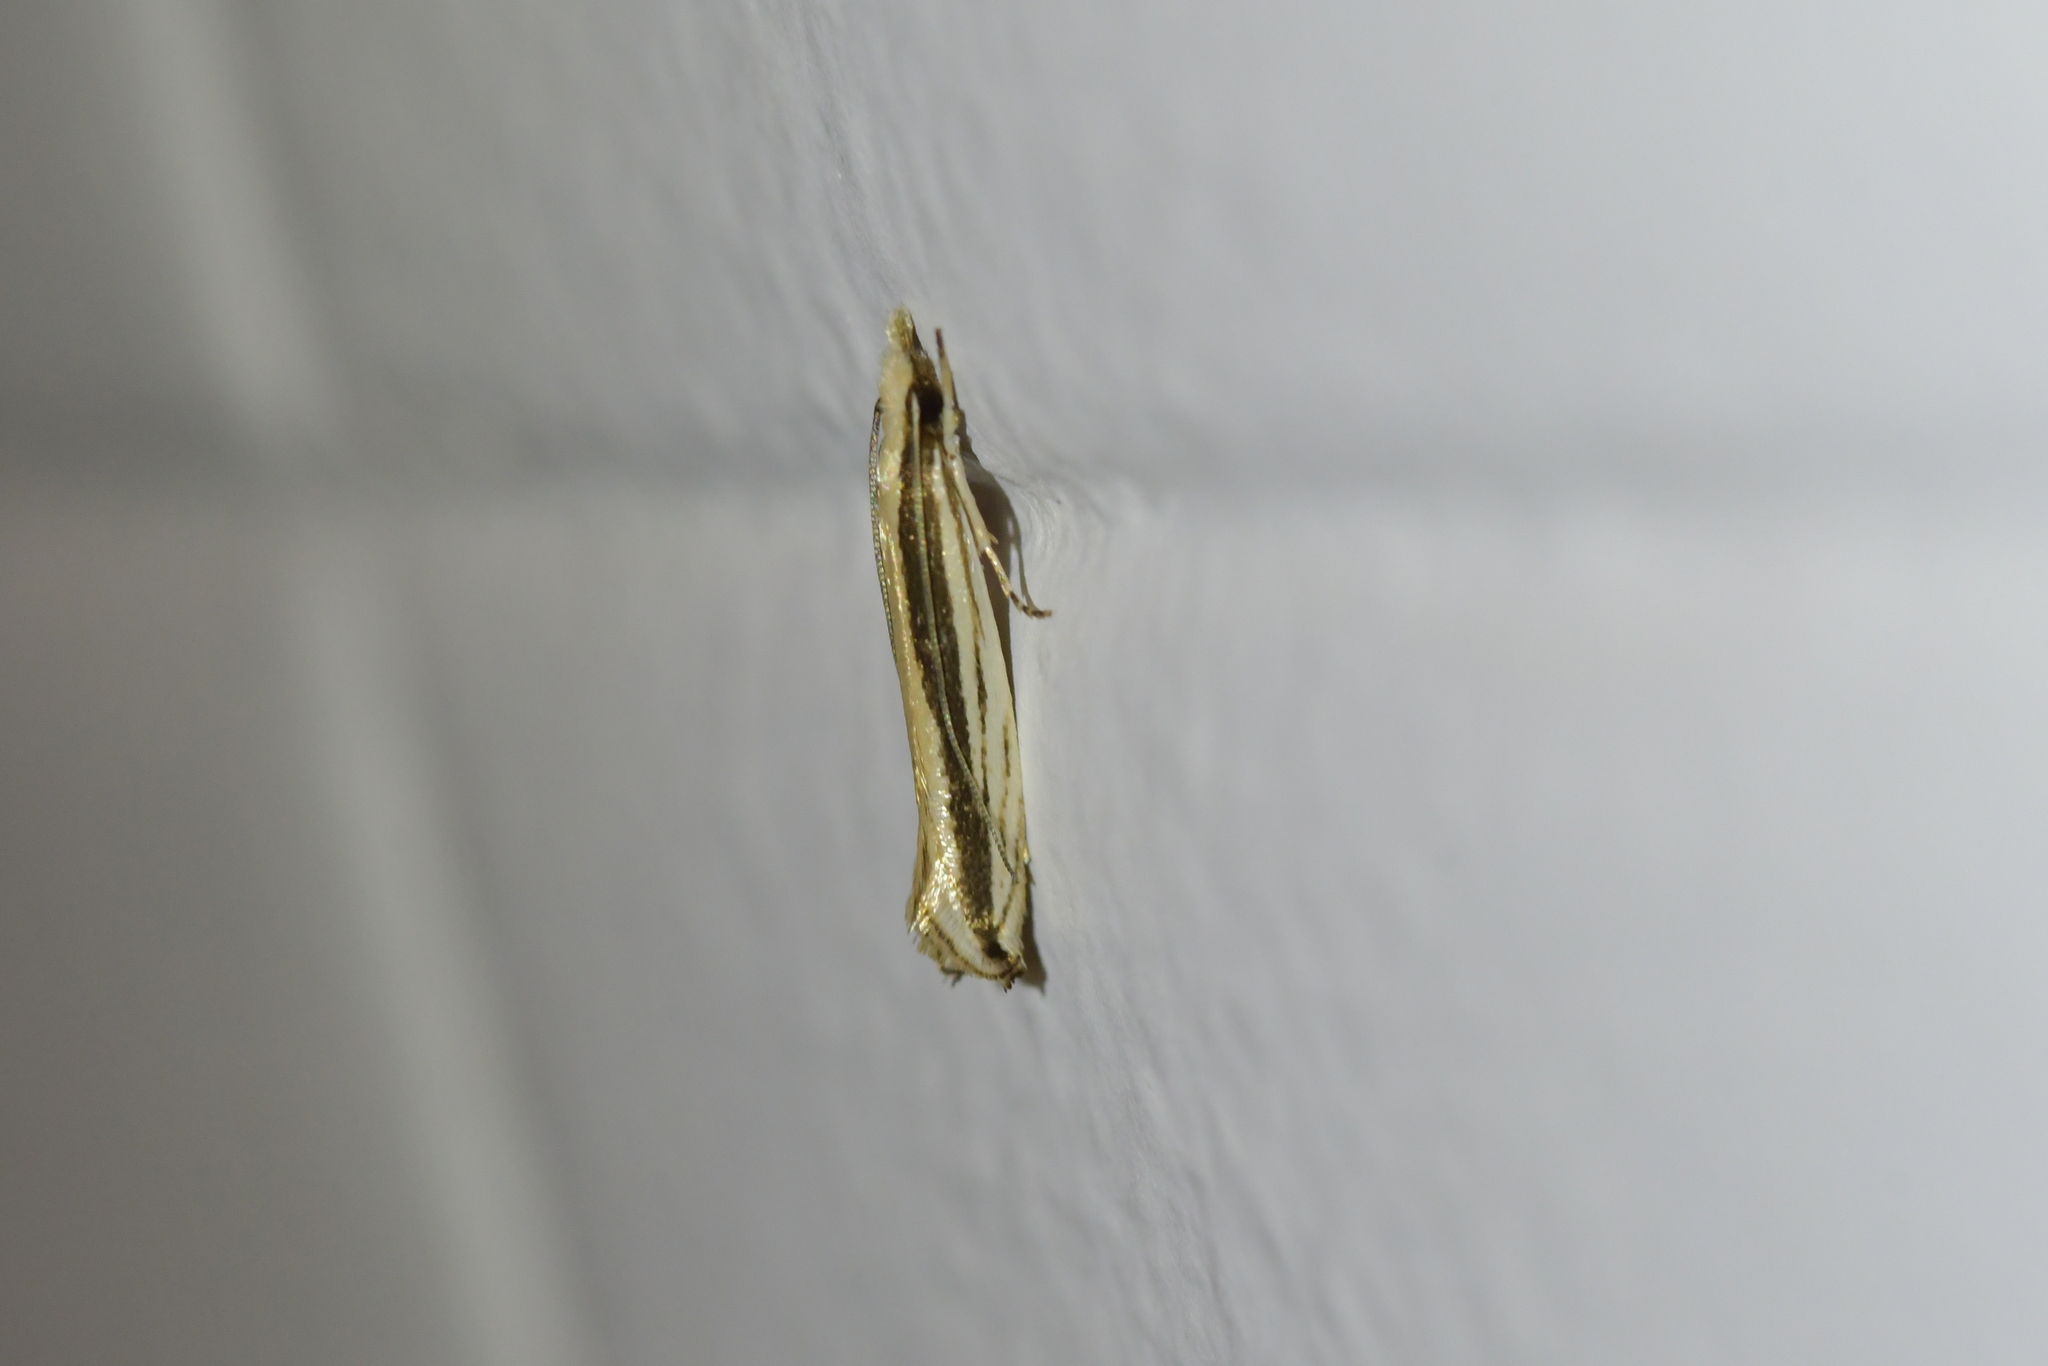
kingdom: Animalia
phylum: Arthropoda
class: Insecta
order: Lepidoptera
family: Tineidae
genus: Erechthias
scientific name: Erechthias stilbella
